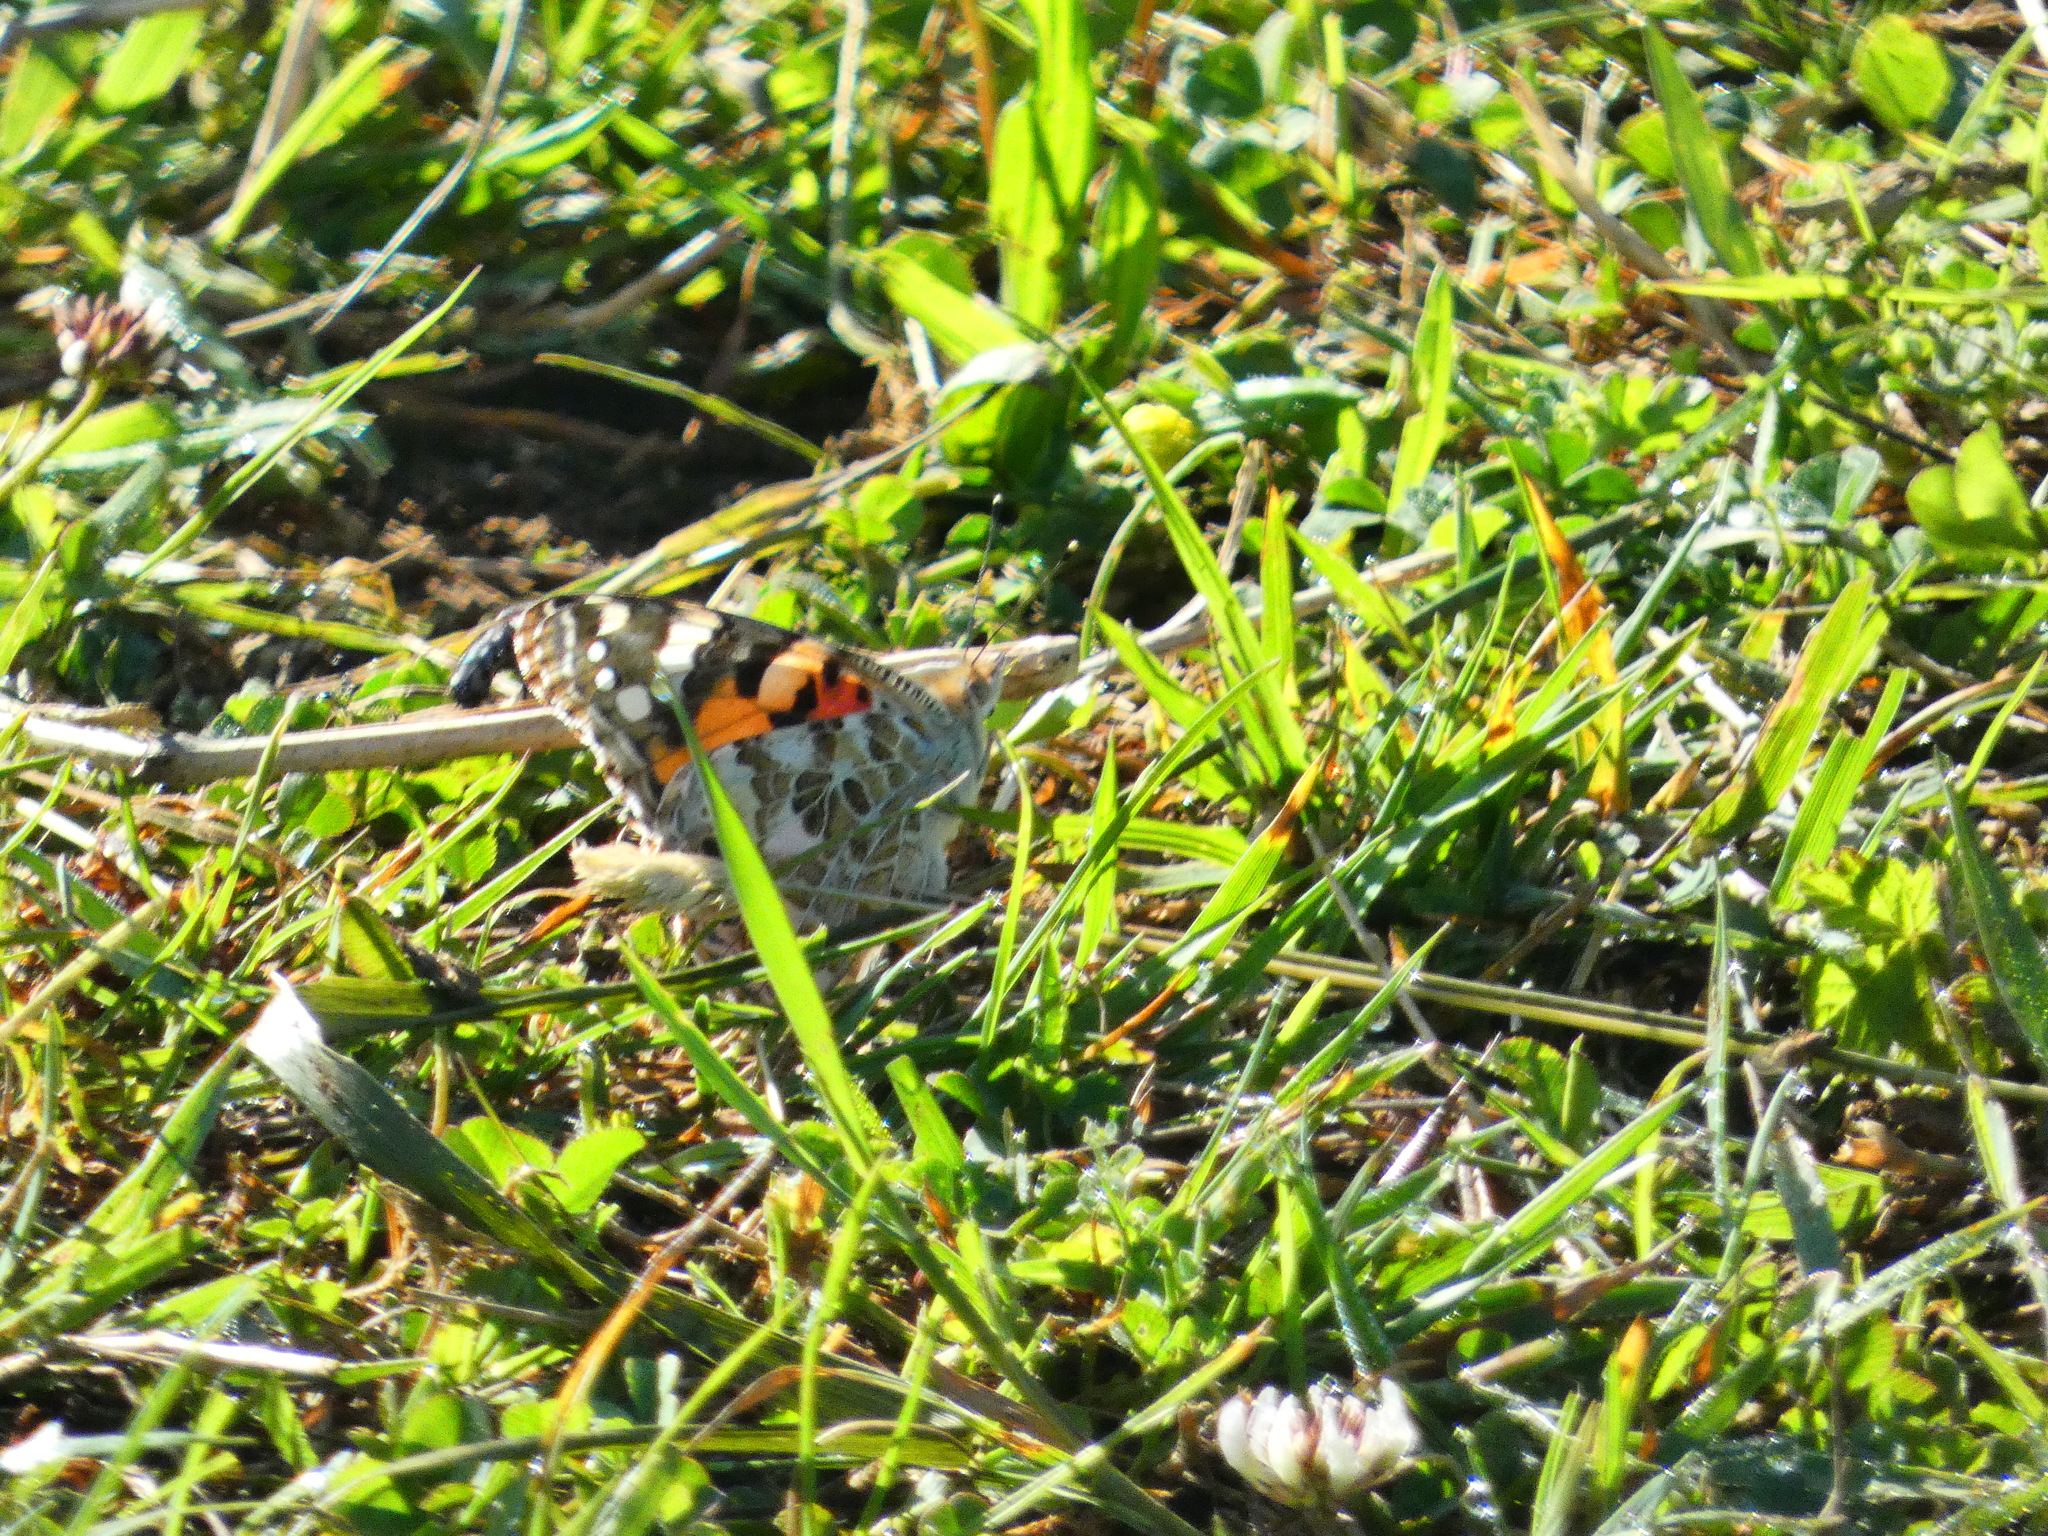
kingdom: Animalia
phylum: Arthropoda
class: Insecta
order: Lepidoptera
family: Nymphalidae
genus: Vanessa
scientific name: Vanessa cardui
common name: Painted lady
